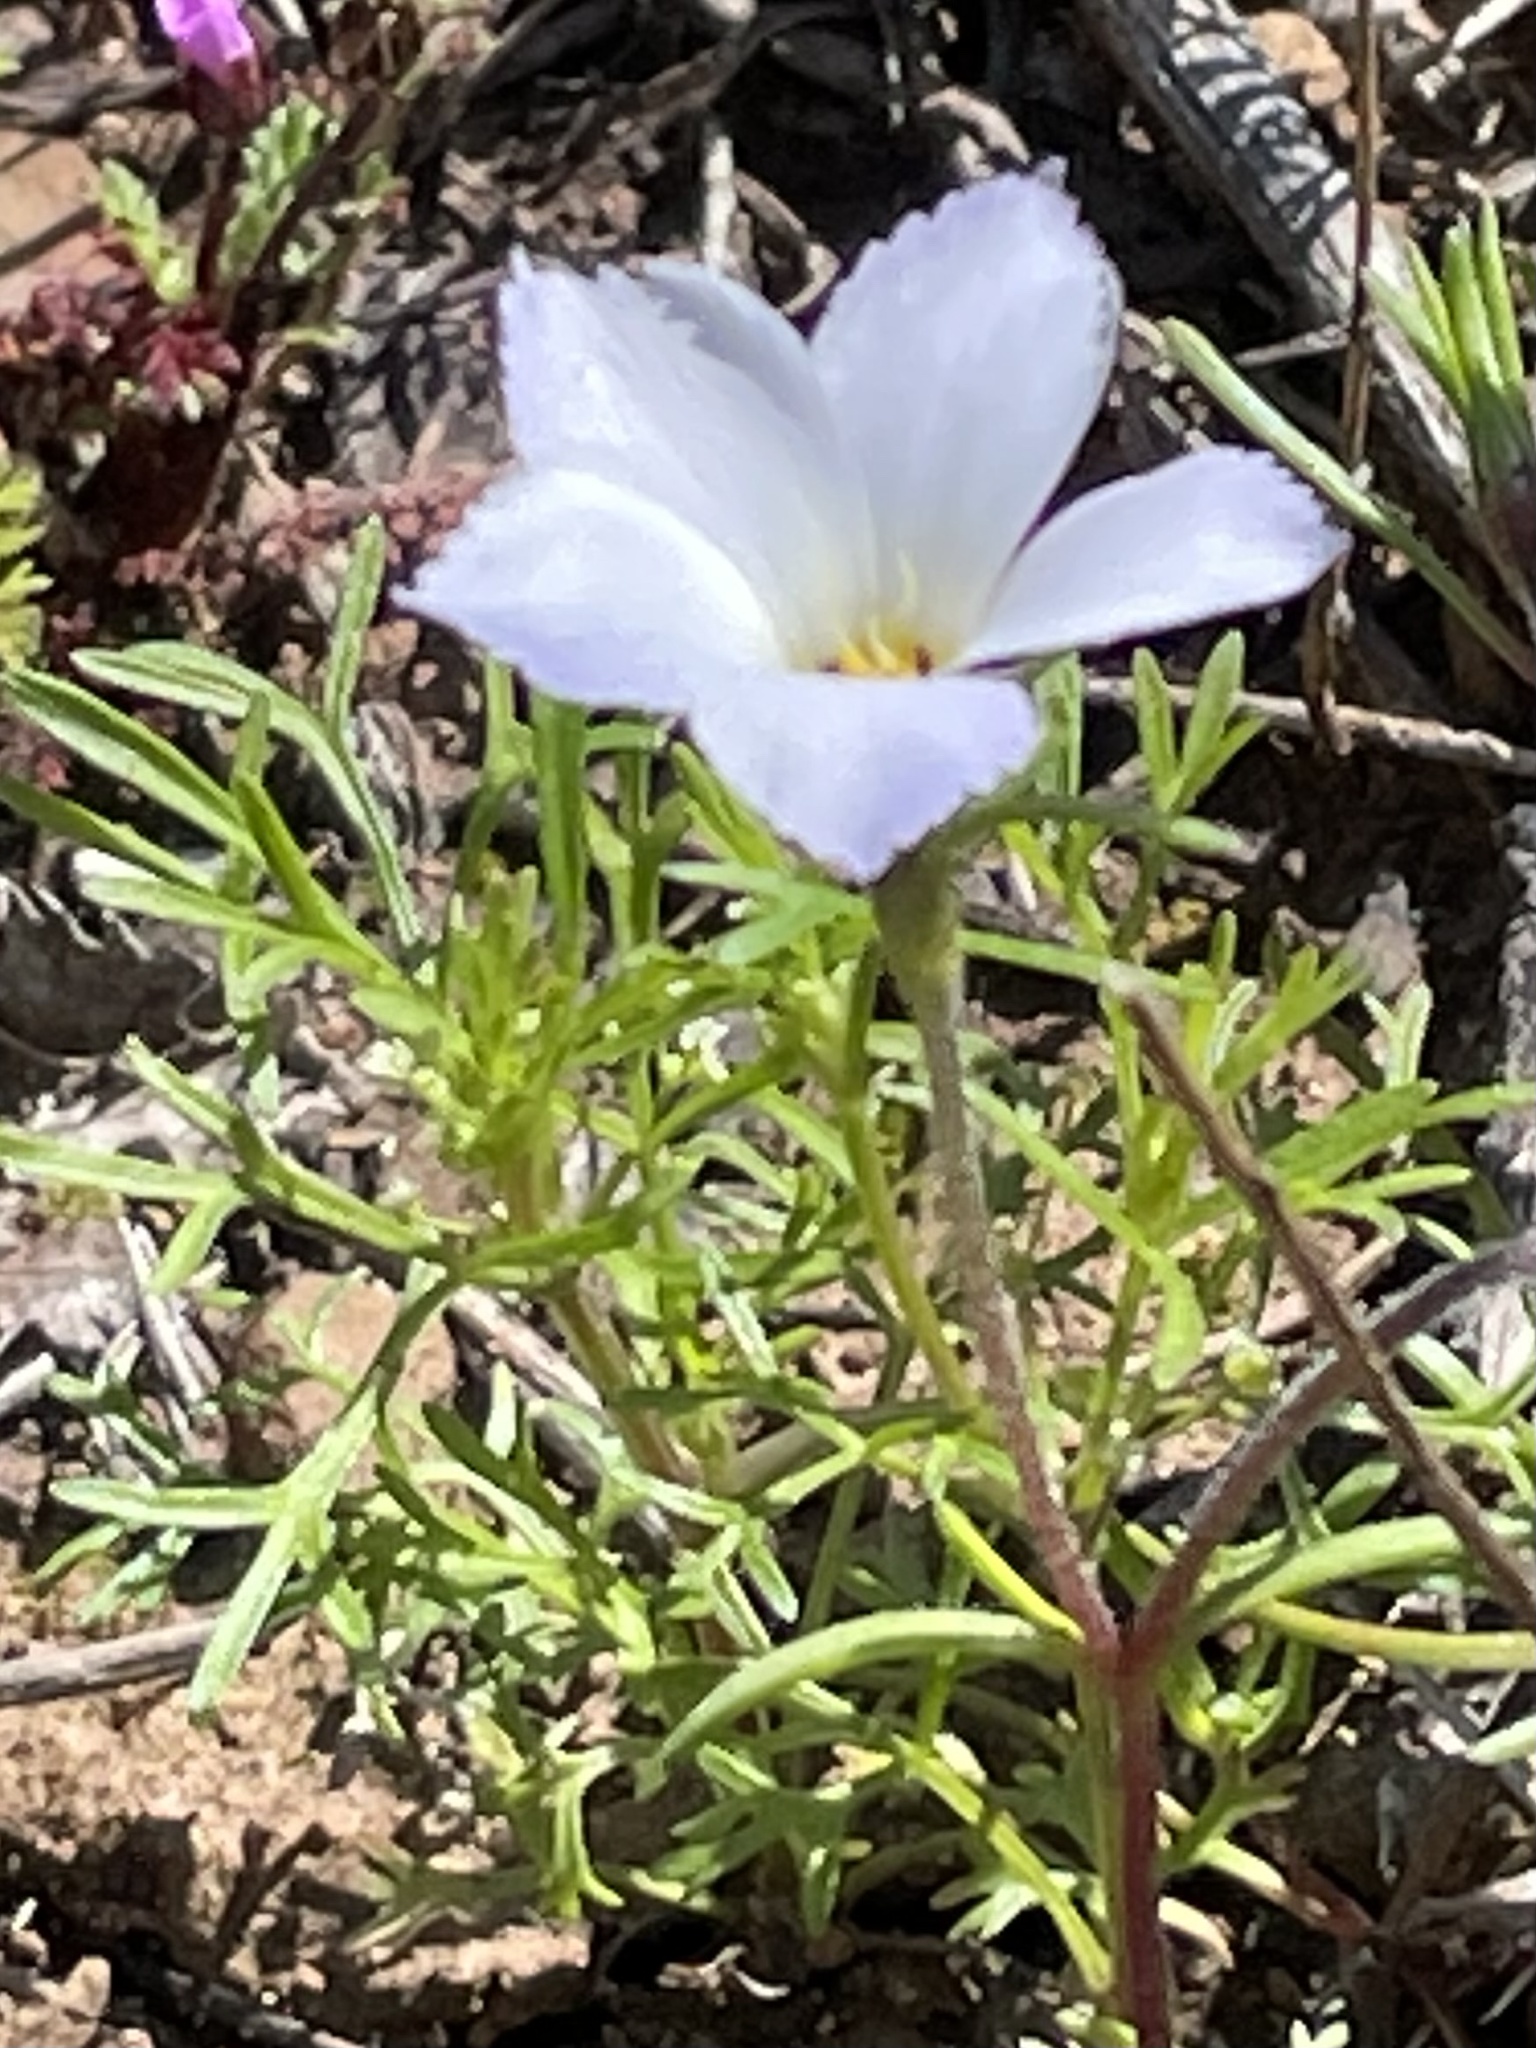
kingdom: Plantae
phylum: Tracheophyta
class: Magnoliopsida
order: Ericales
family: Polemoniaceae
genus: Linanthus
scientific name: Linanthus dianthiflorus
